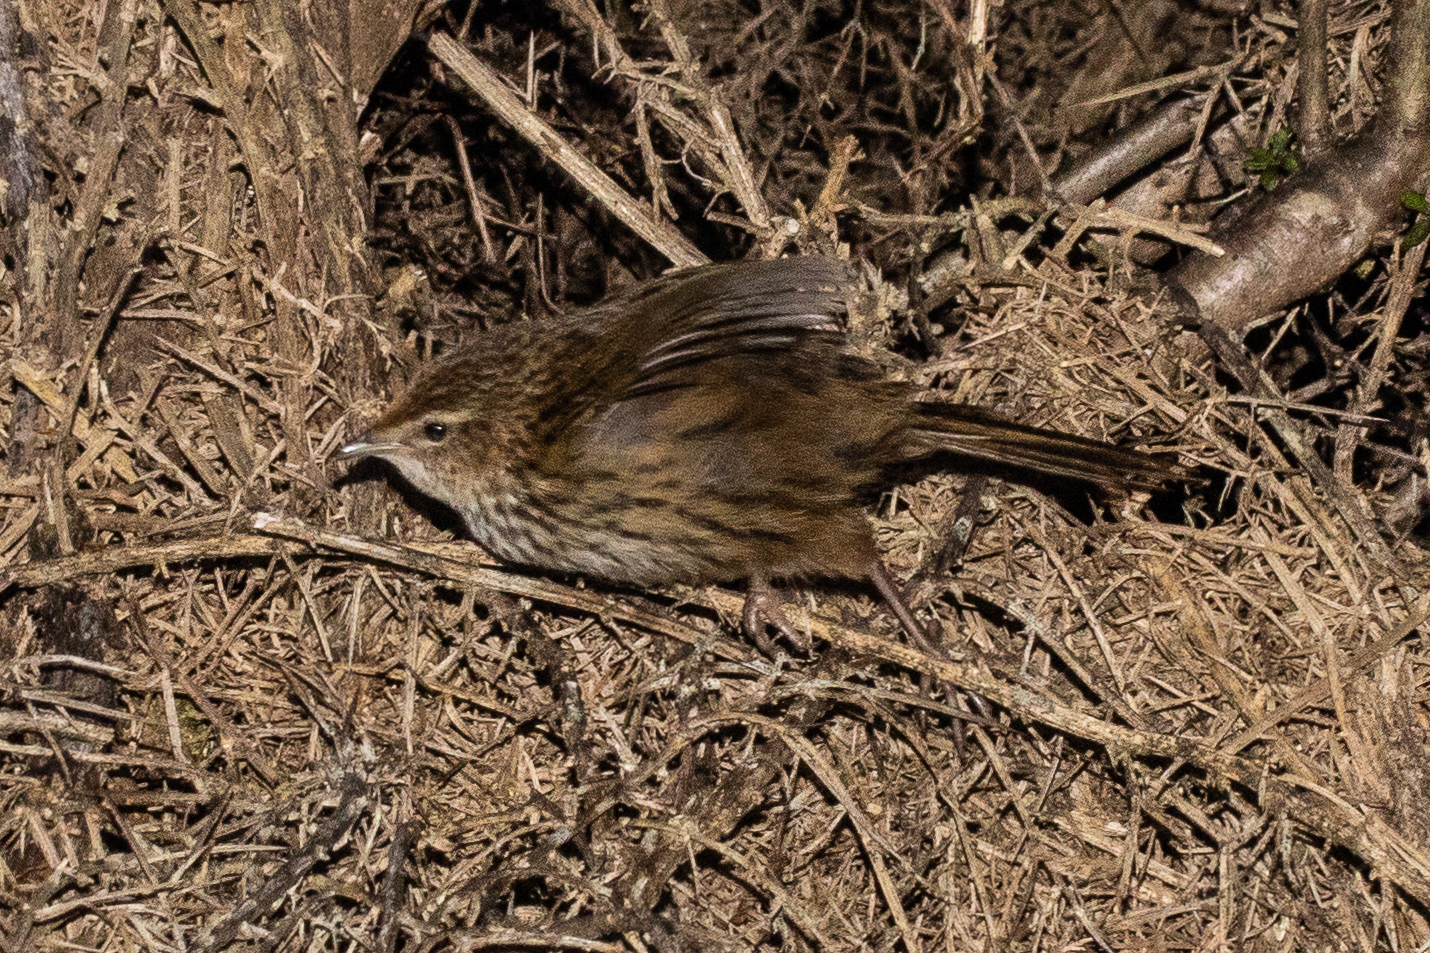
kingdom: Animalia
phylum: Chordata
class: Aves
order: Passeriformes
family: Locustellidae
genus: Poodytes
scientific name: Poodytes punctatus
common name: New zealand fernbird
